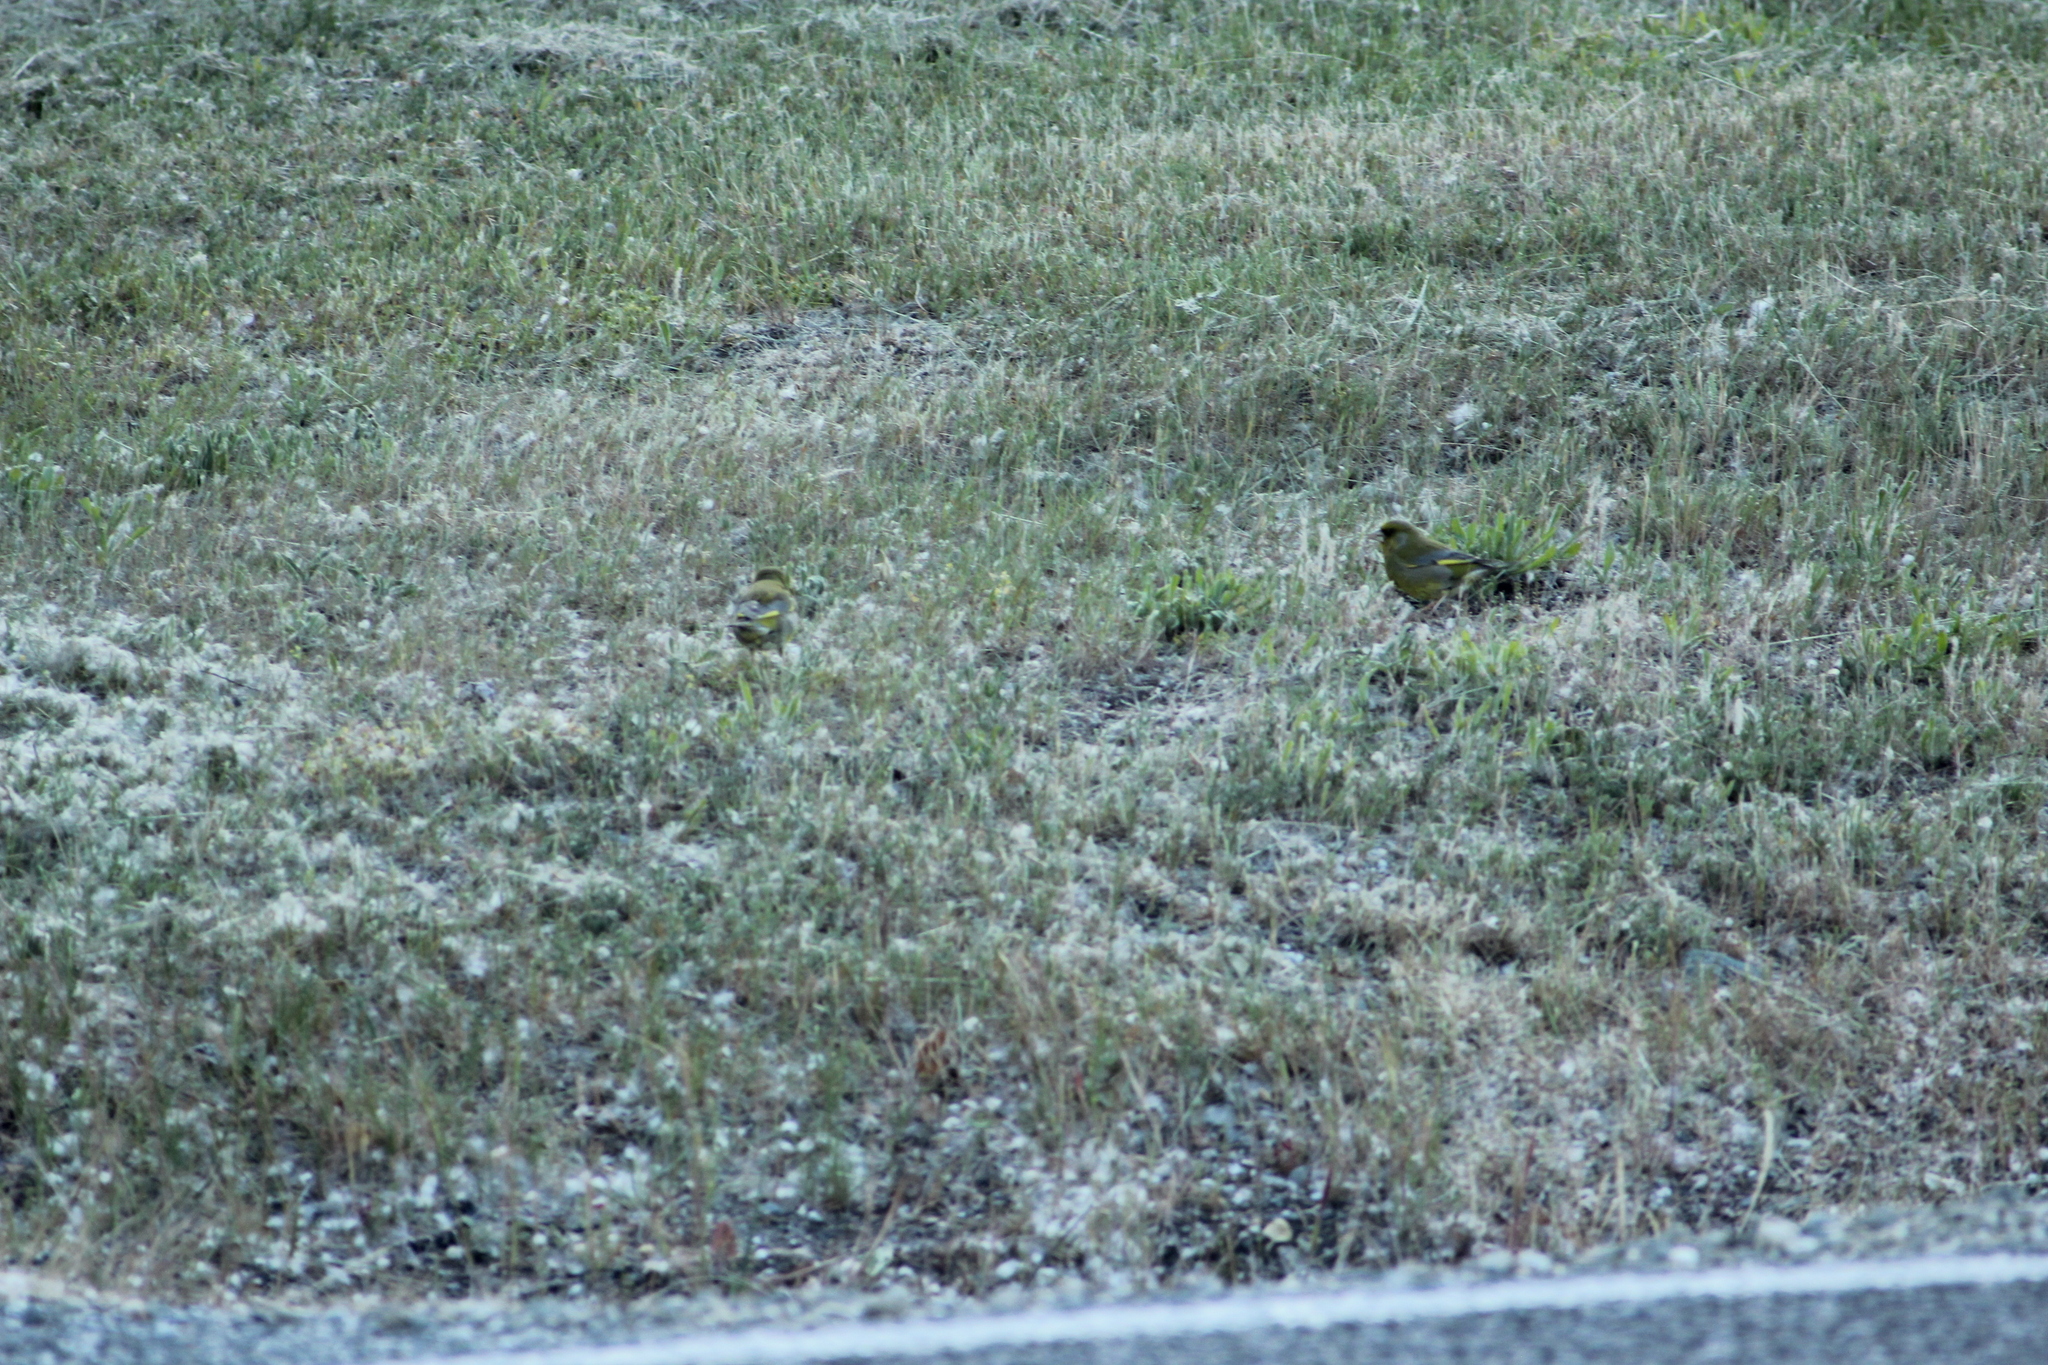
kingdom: Plantae
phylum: Tracheophyta
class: Liliopsida
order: Poales
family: Poaceae
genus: Chloris
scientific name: Chloris chloris
